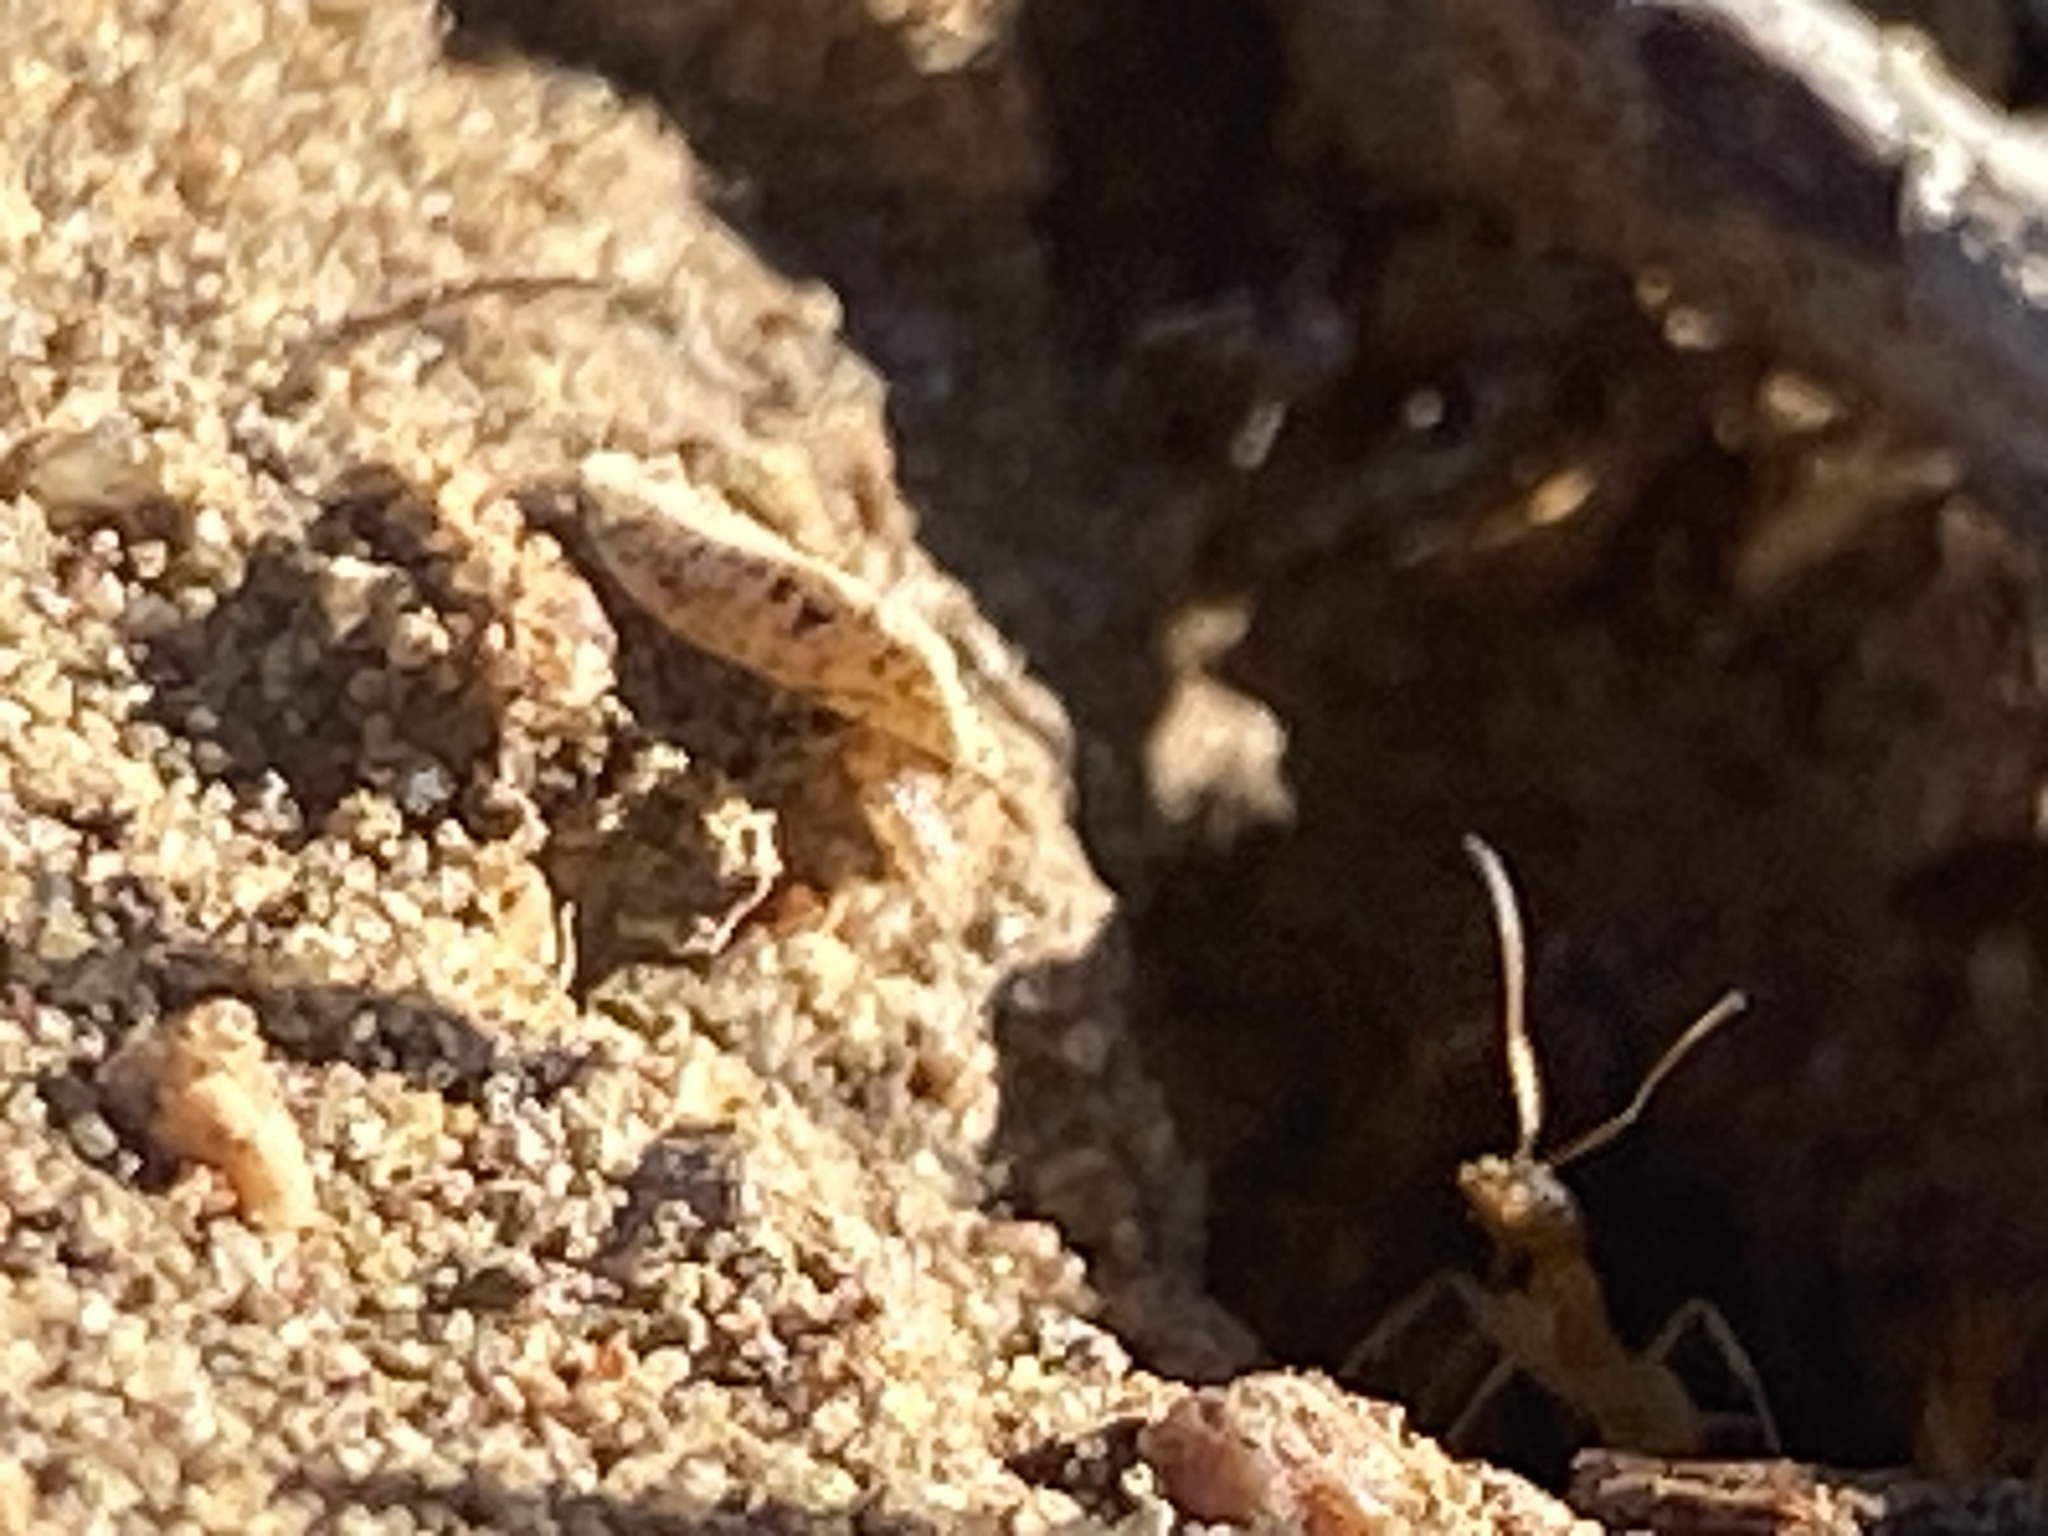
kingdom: Animalia
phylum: Arthropoda
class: Insecta
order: Hymenoptera
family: Formicidae
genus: Dorymyrmex
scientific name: Dorymyrmex flavus
